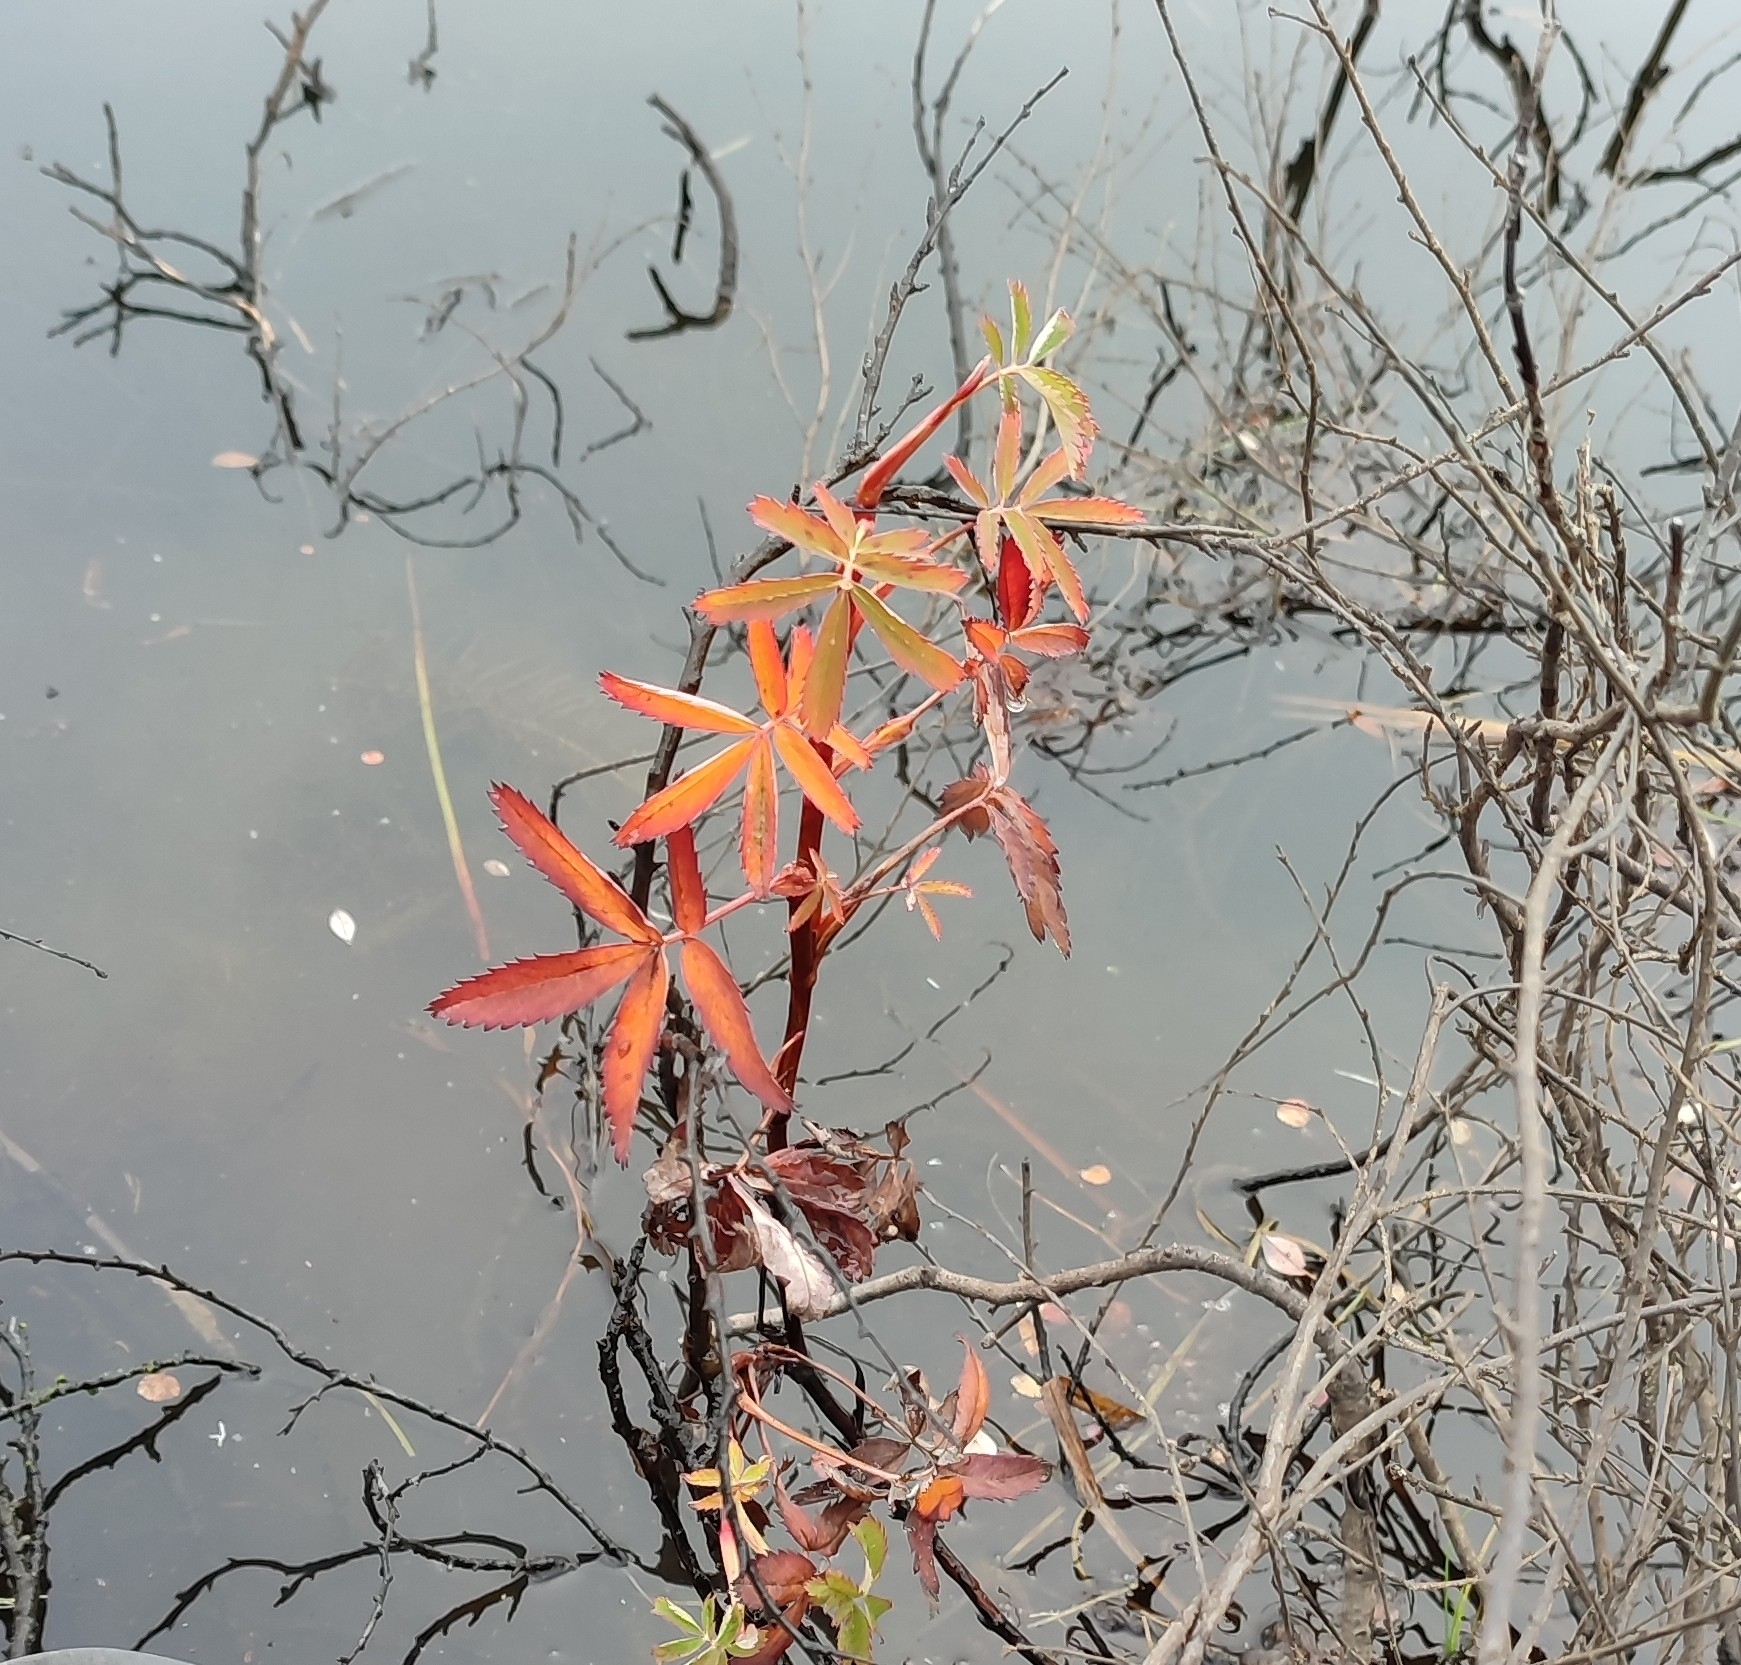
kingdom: Plantae
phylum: Tracheophyta
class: Magnoliopsida
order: Rosales
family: Rosaceae
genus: Comarum
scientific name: Comarum palustre
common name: Marsh cinquefoil
